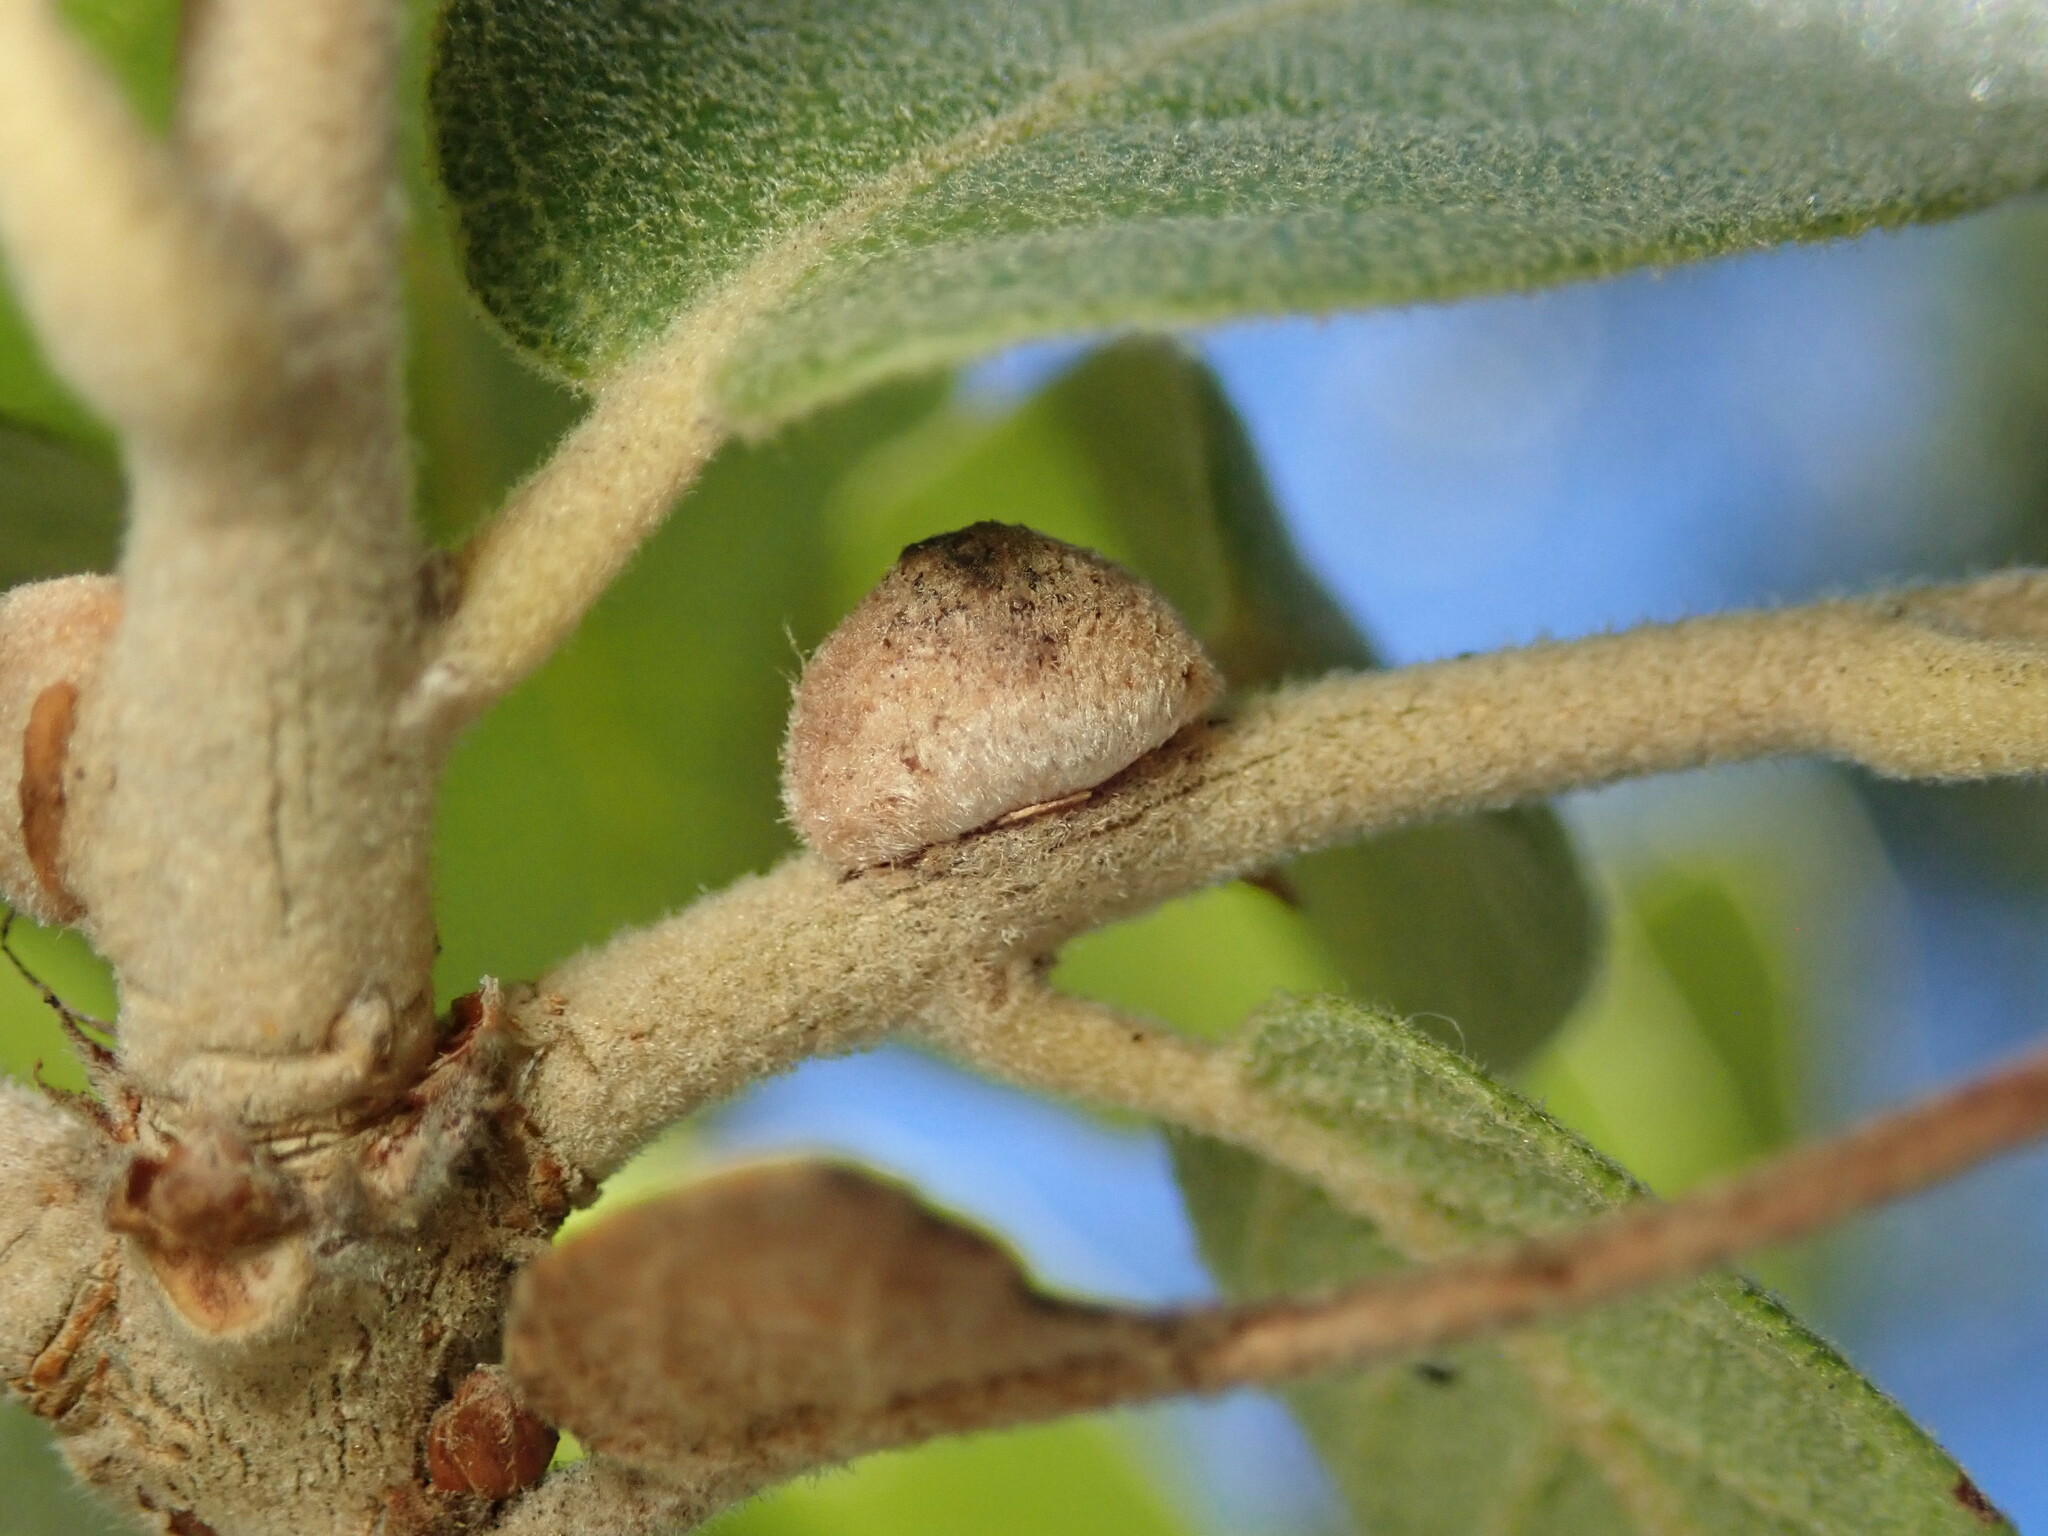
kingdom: Animalia
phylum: Arthropoda
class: Insecta
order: Hymenoptera
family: Cynipidae
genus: Disholcaspis
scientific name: Disholcaspis
